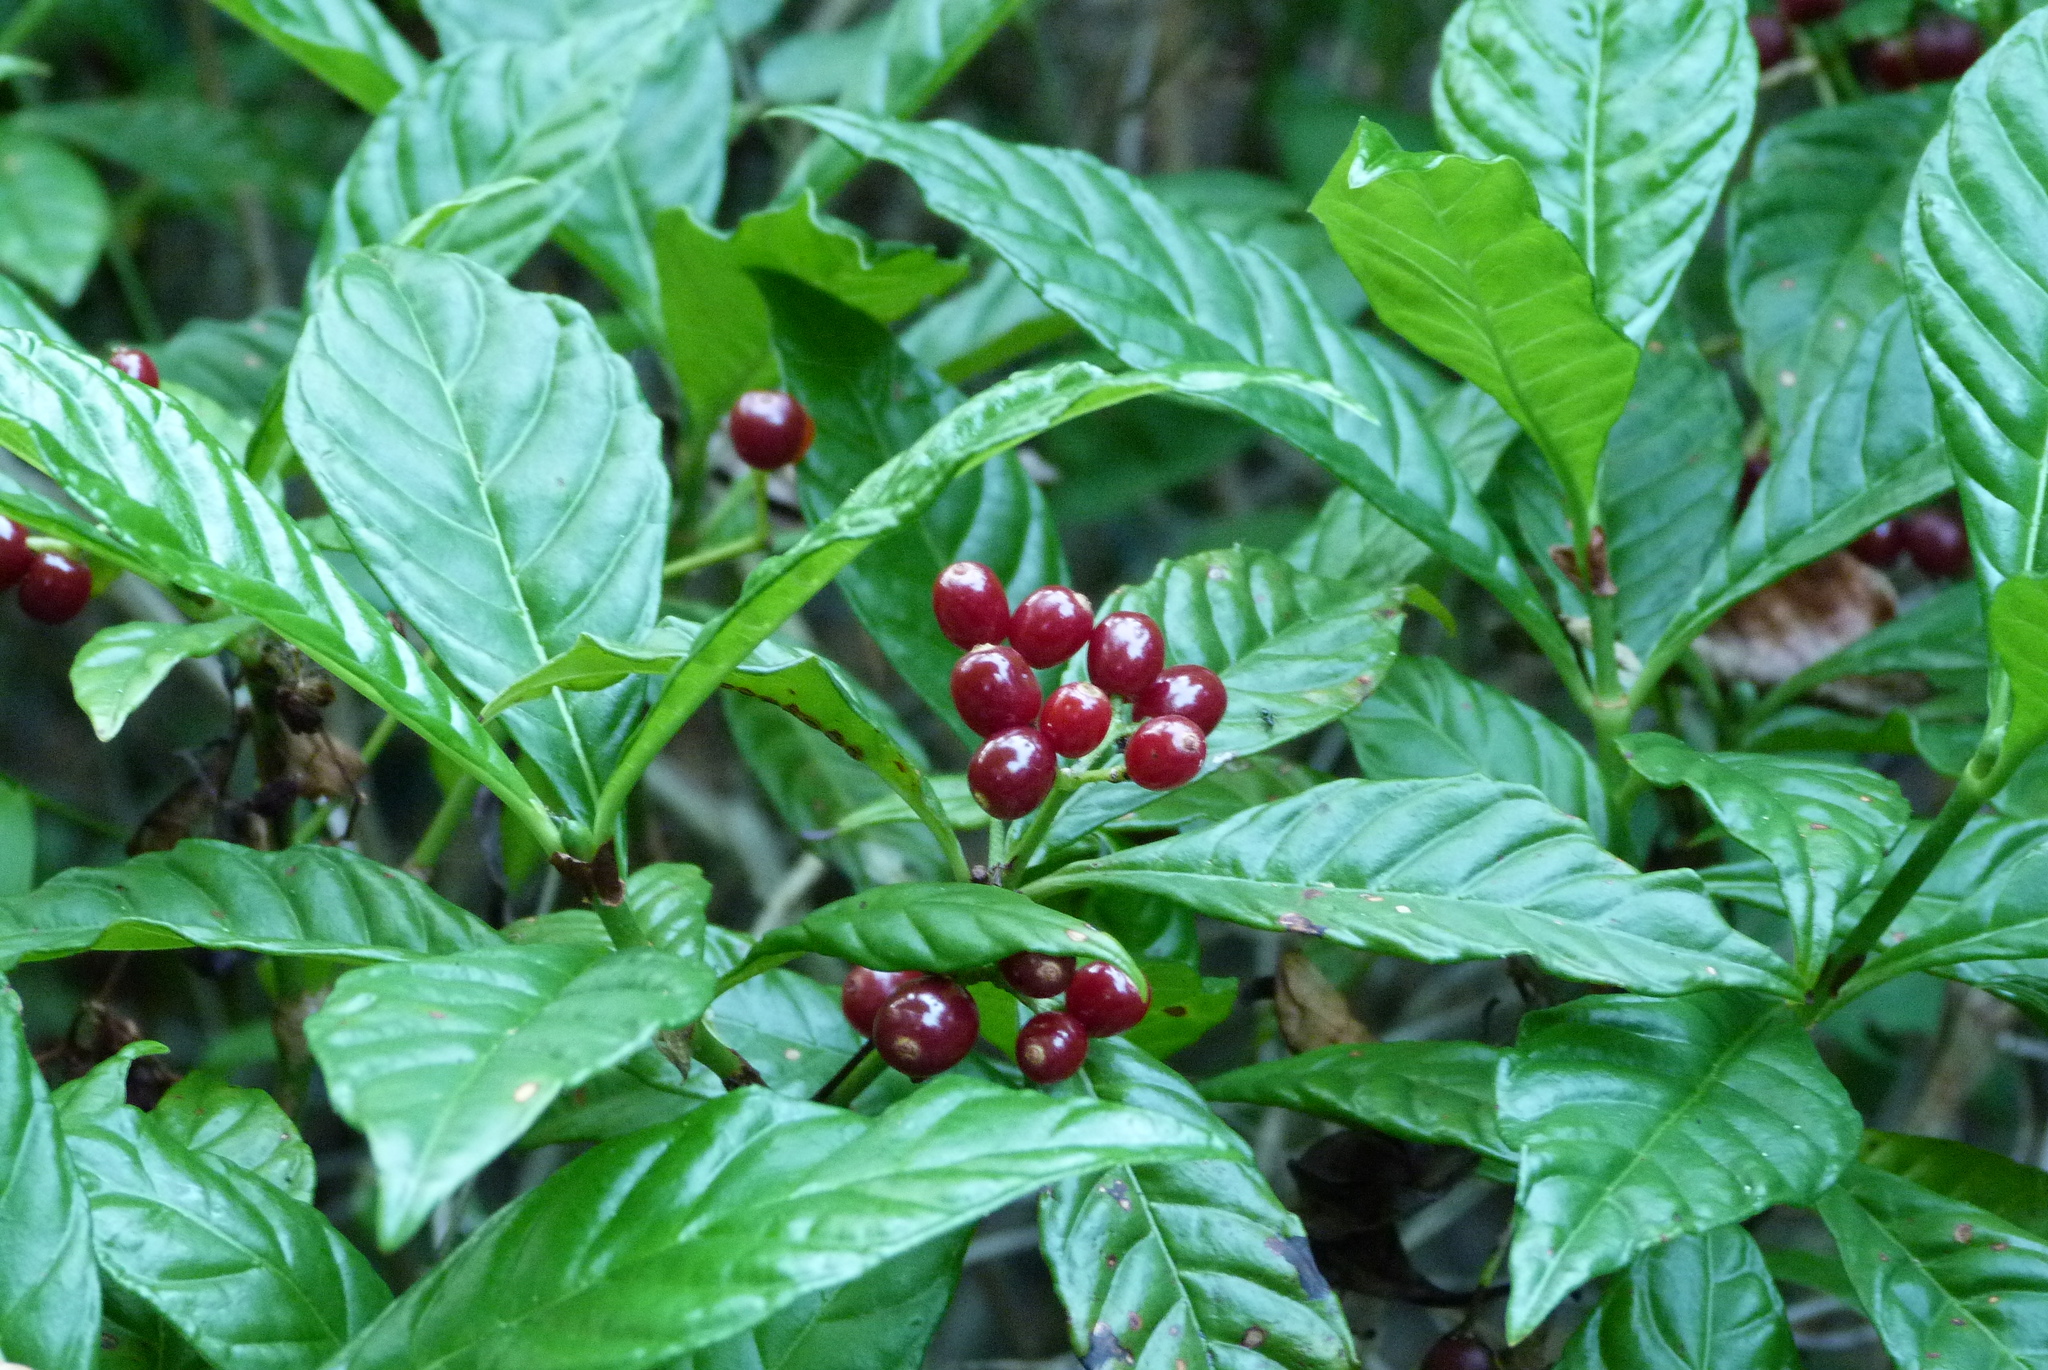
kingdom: Plantae
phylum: Tracheophyta
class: Magnoliopsida
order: Gentianales
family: Rubiaceae
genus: Psychotria
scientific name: Psychotria nervosa
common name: Bastard cankerberry
